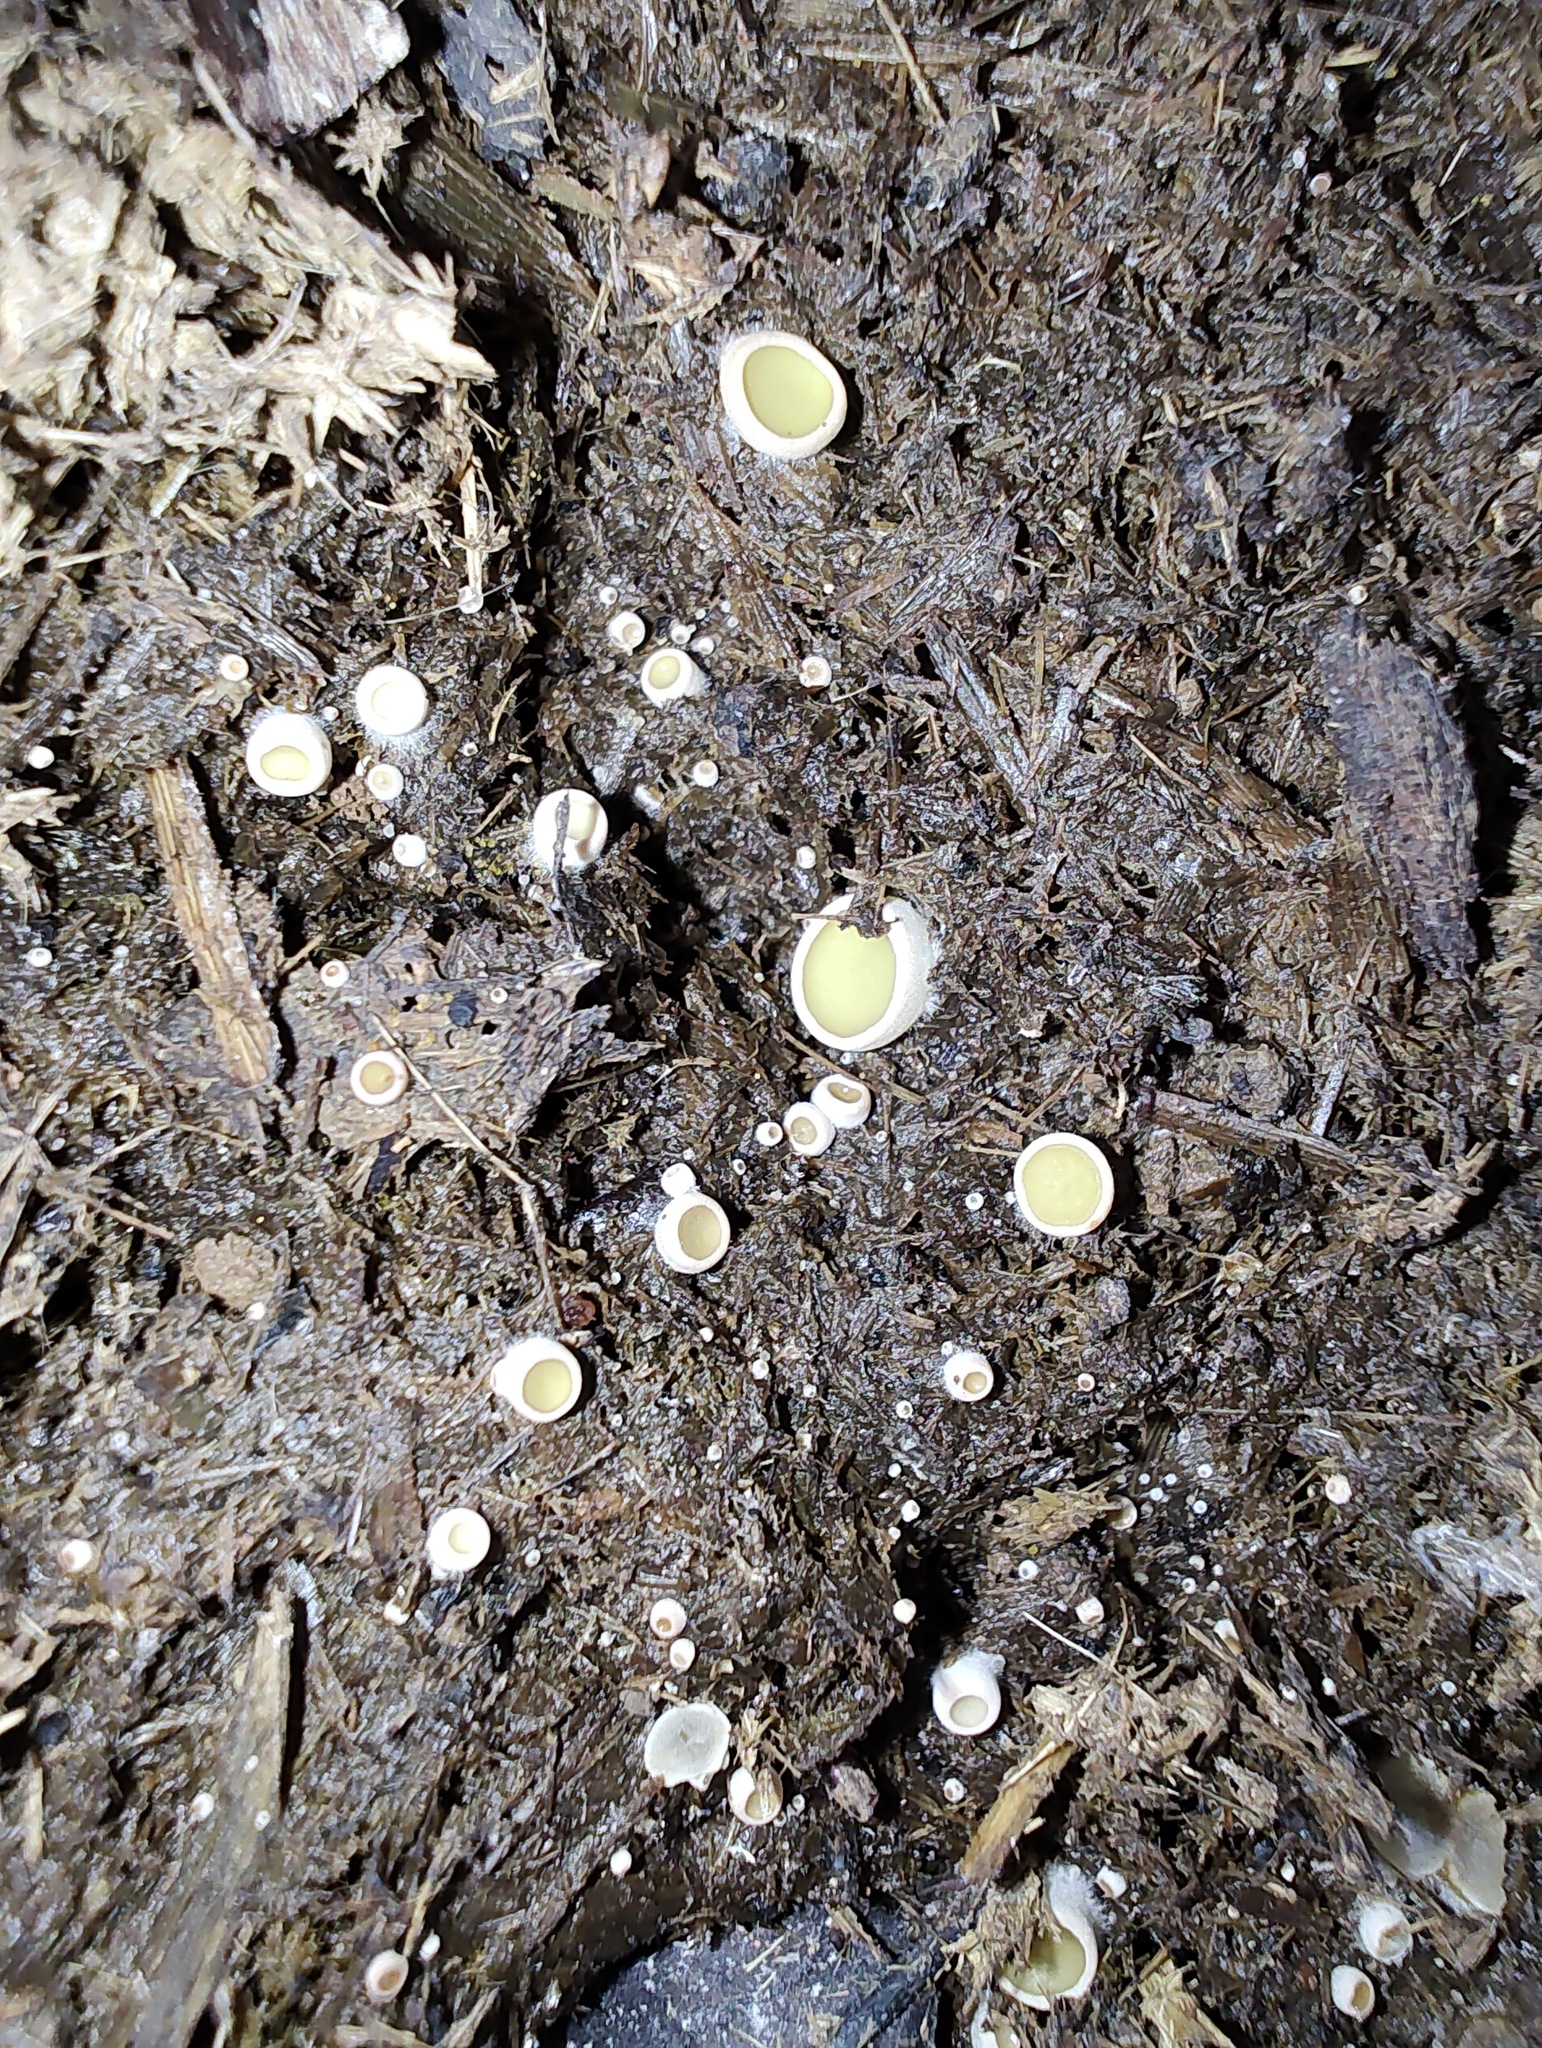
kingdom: Fungi
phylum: Ascomycota
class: Pezizomycetes
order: Pezizales
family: Ascobolaceae
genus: Ascobolus
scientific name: Ascobolus scatigenus
